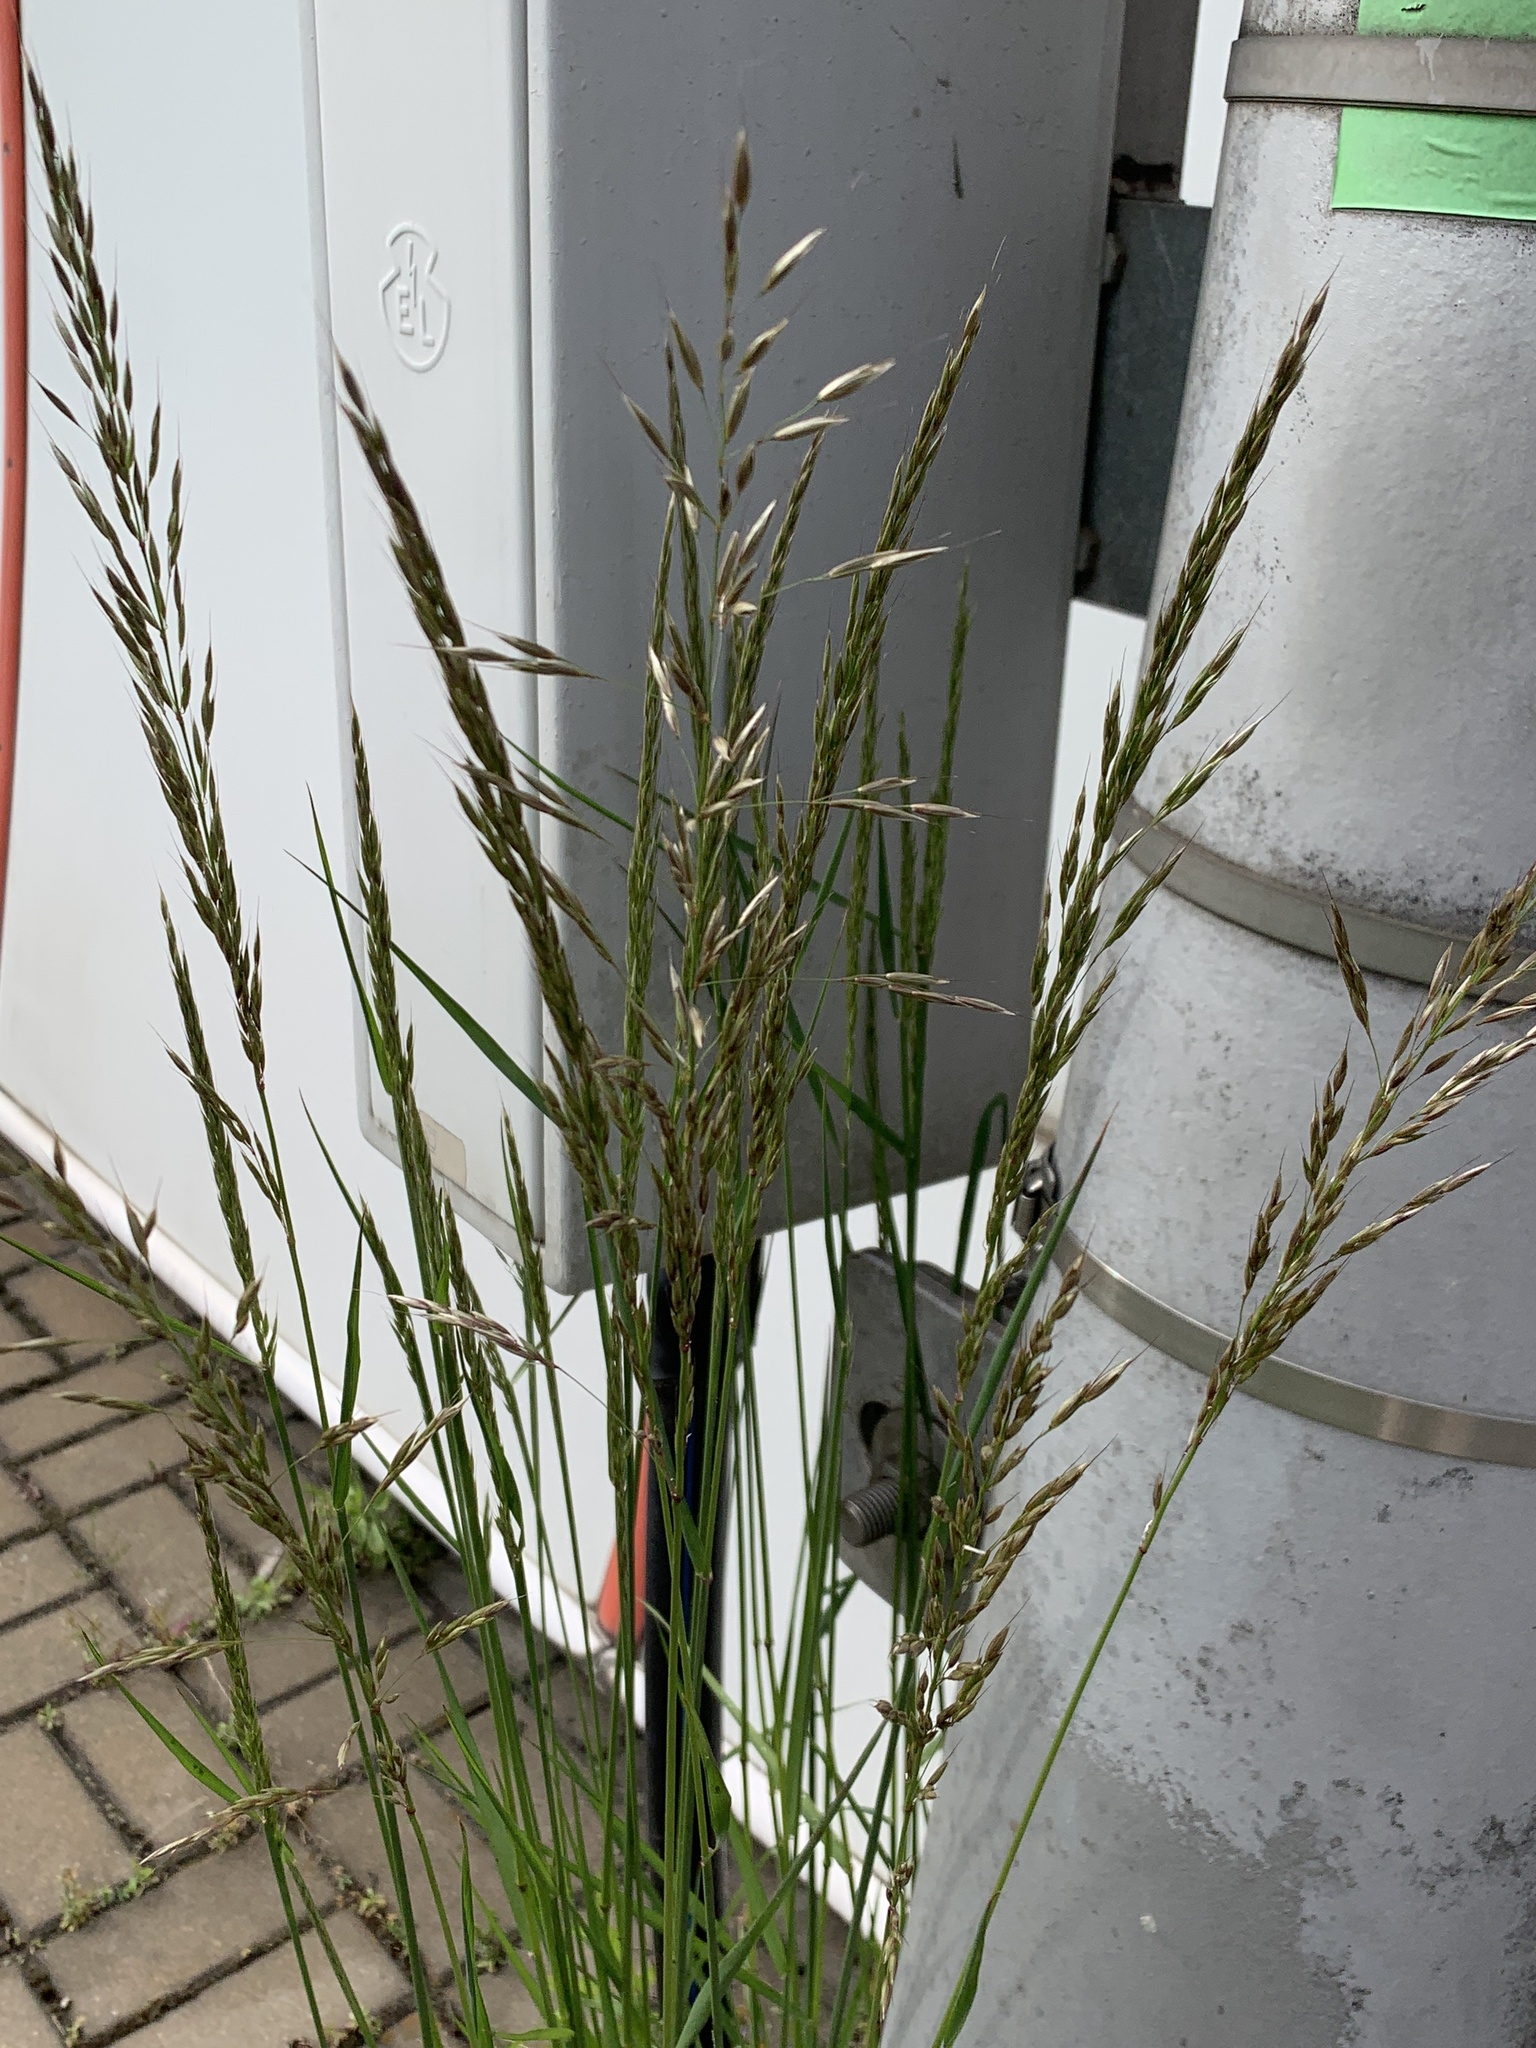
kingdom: Plantae
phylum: Tracheophyta
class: Liliopsida
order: Poales
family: Poaceae
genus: Arrhenatherum
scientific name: Arrhenatherum elatius
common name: Tall oatgrass
